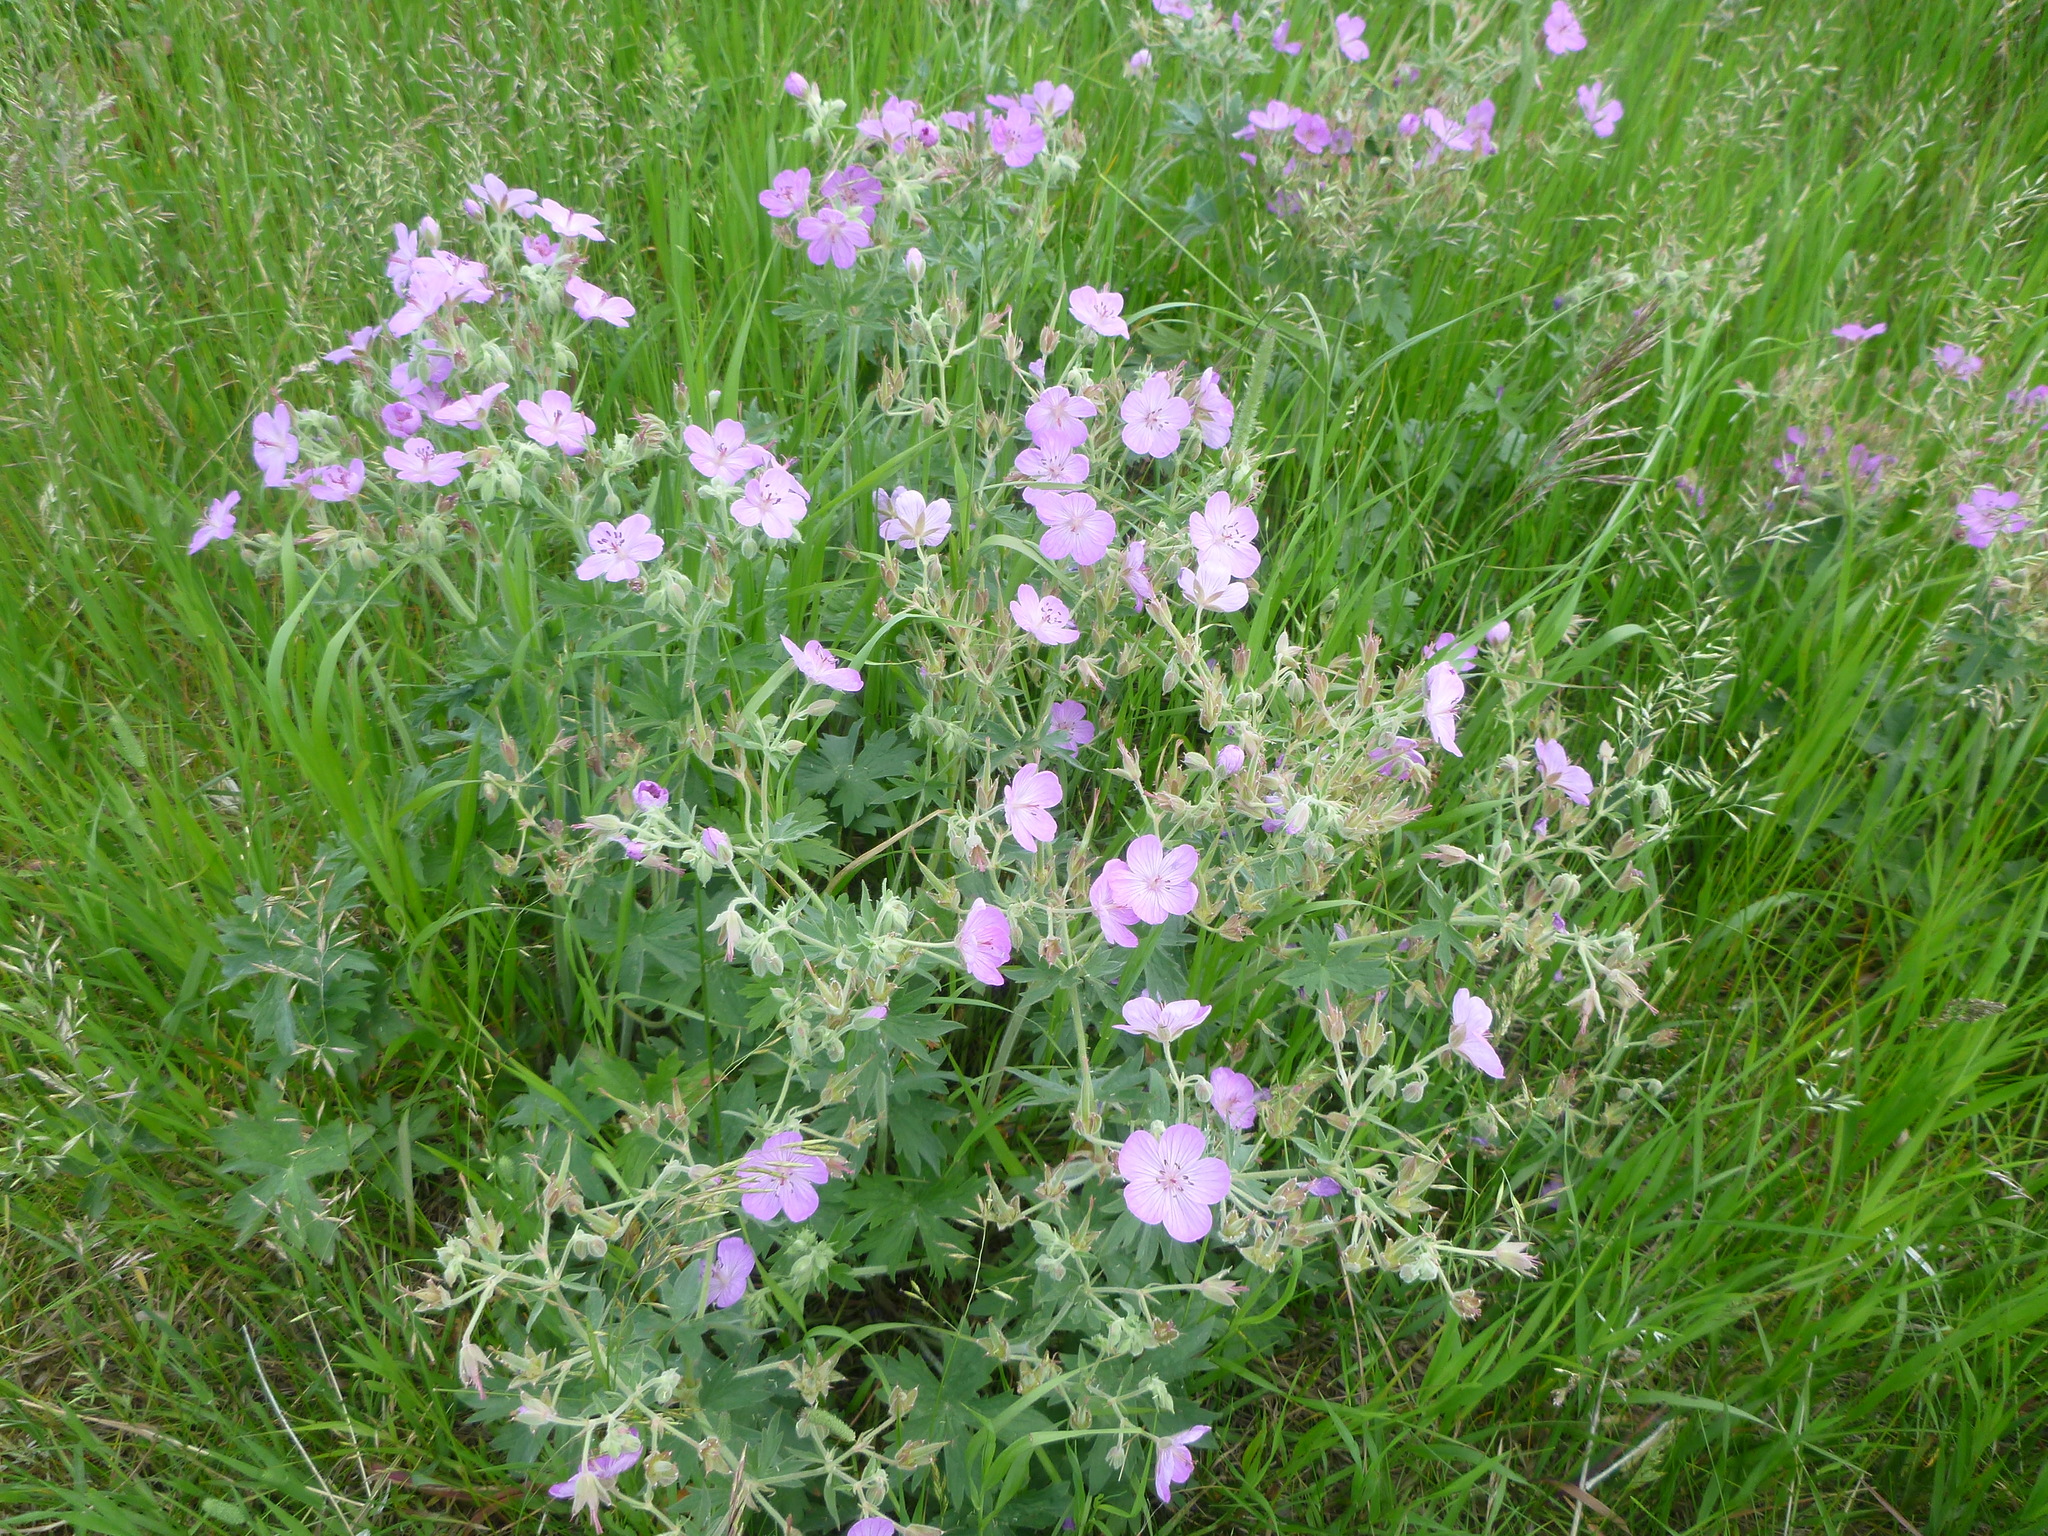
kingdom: Plantae
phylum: Tracheophyta
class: Magnoliopsida
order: Geraniales
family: Geraniaceae
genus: Geranium
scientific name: Geranium viscosissimum
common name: Purple geranium
